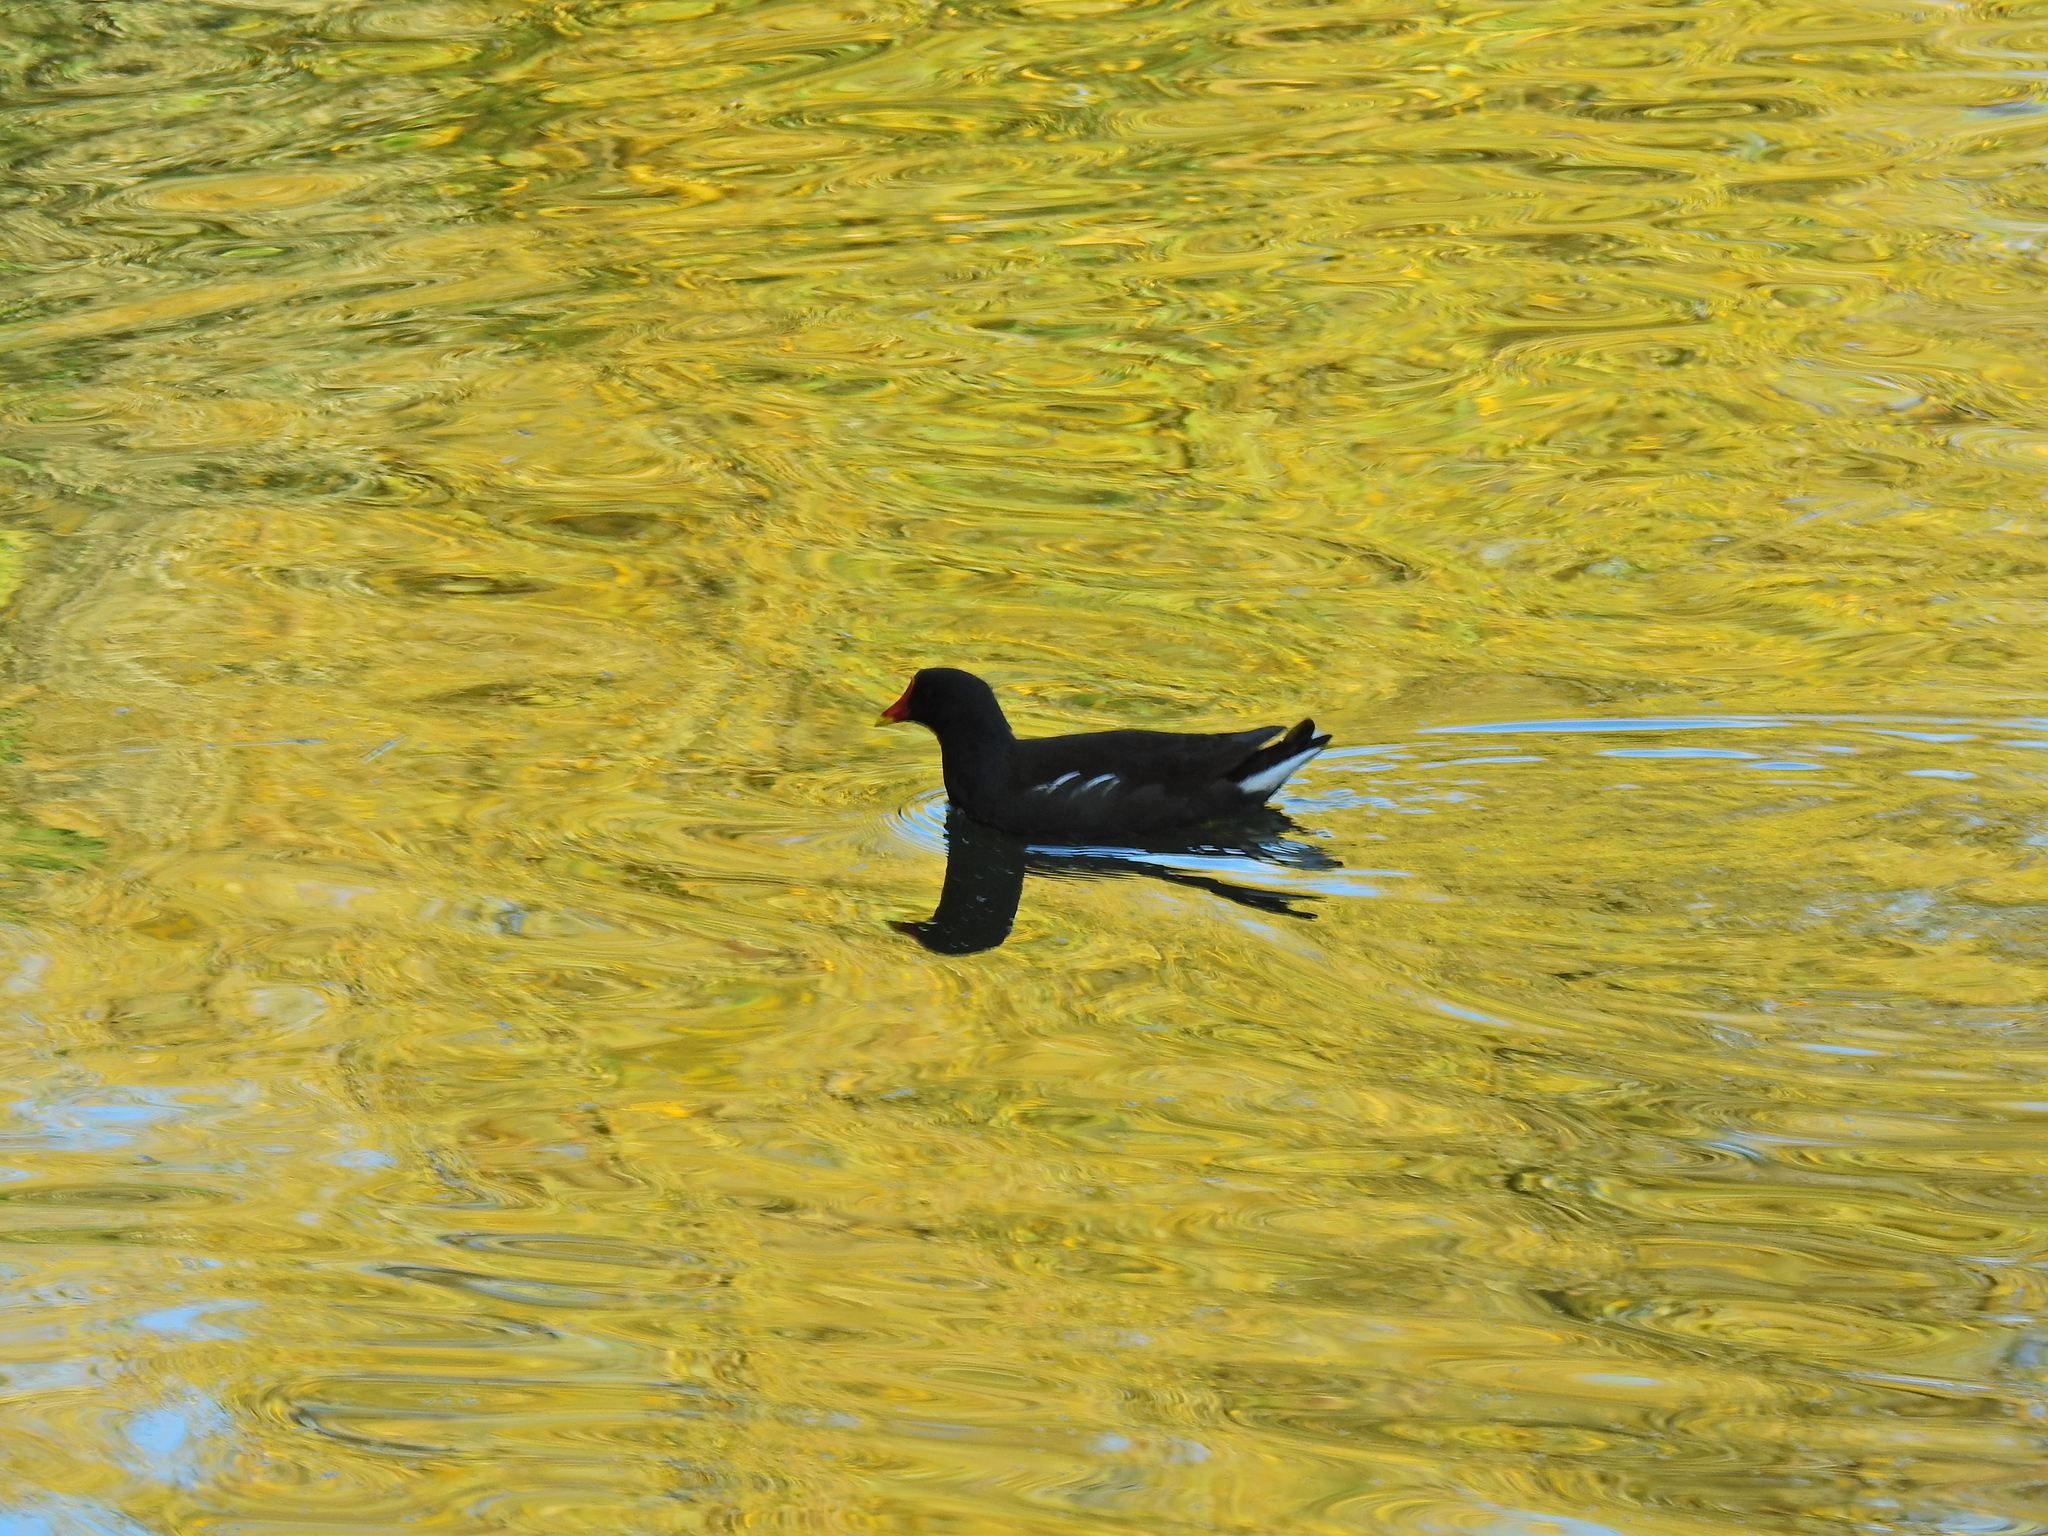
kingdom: Animalia
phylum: Chordata
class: Aves
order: Gruiformes
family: Rallidae
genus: Gallinula
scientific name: Gallinula chloropus
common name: Common moorhen
